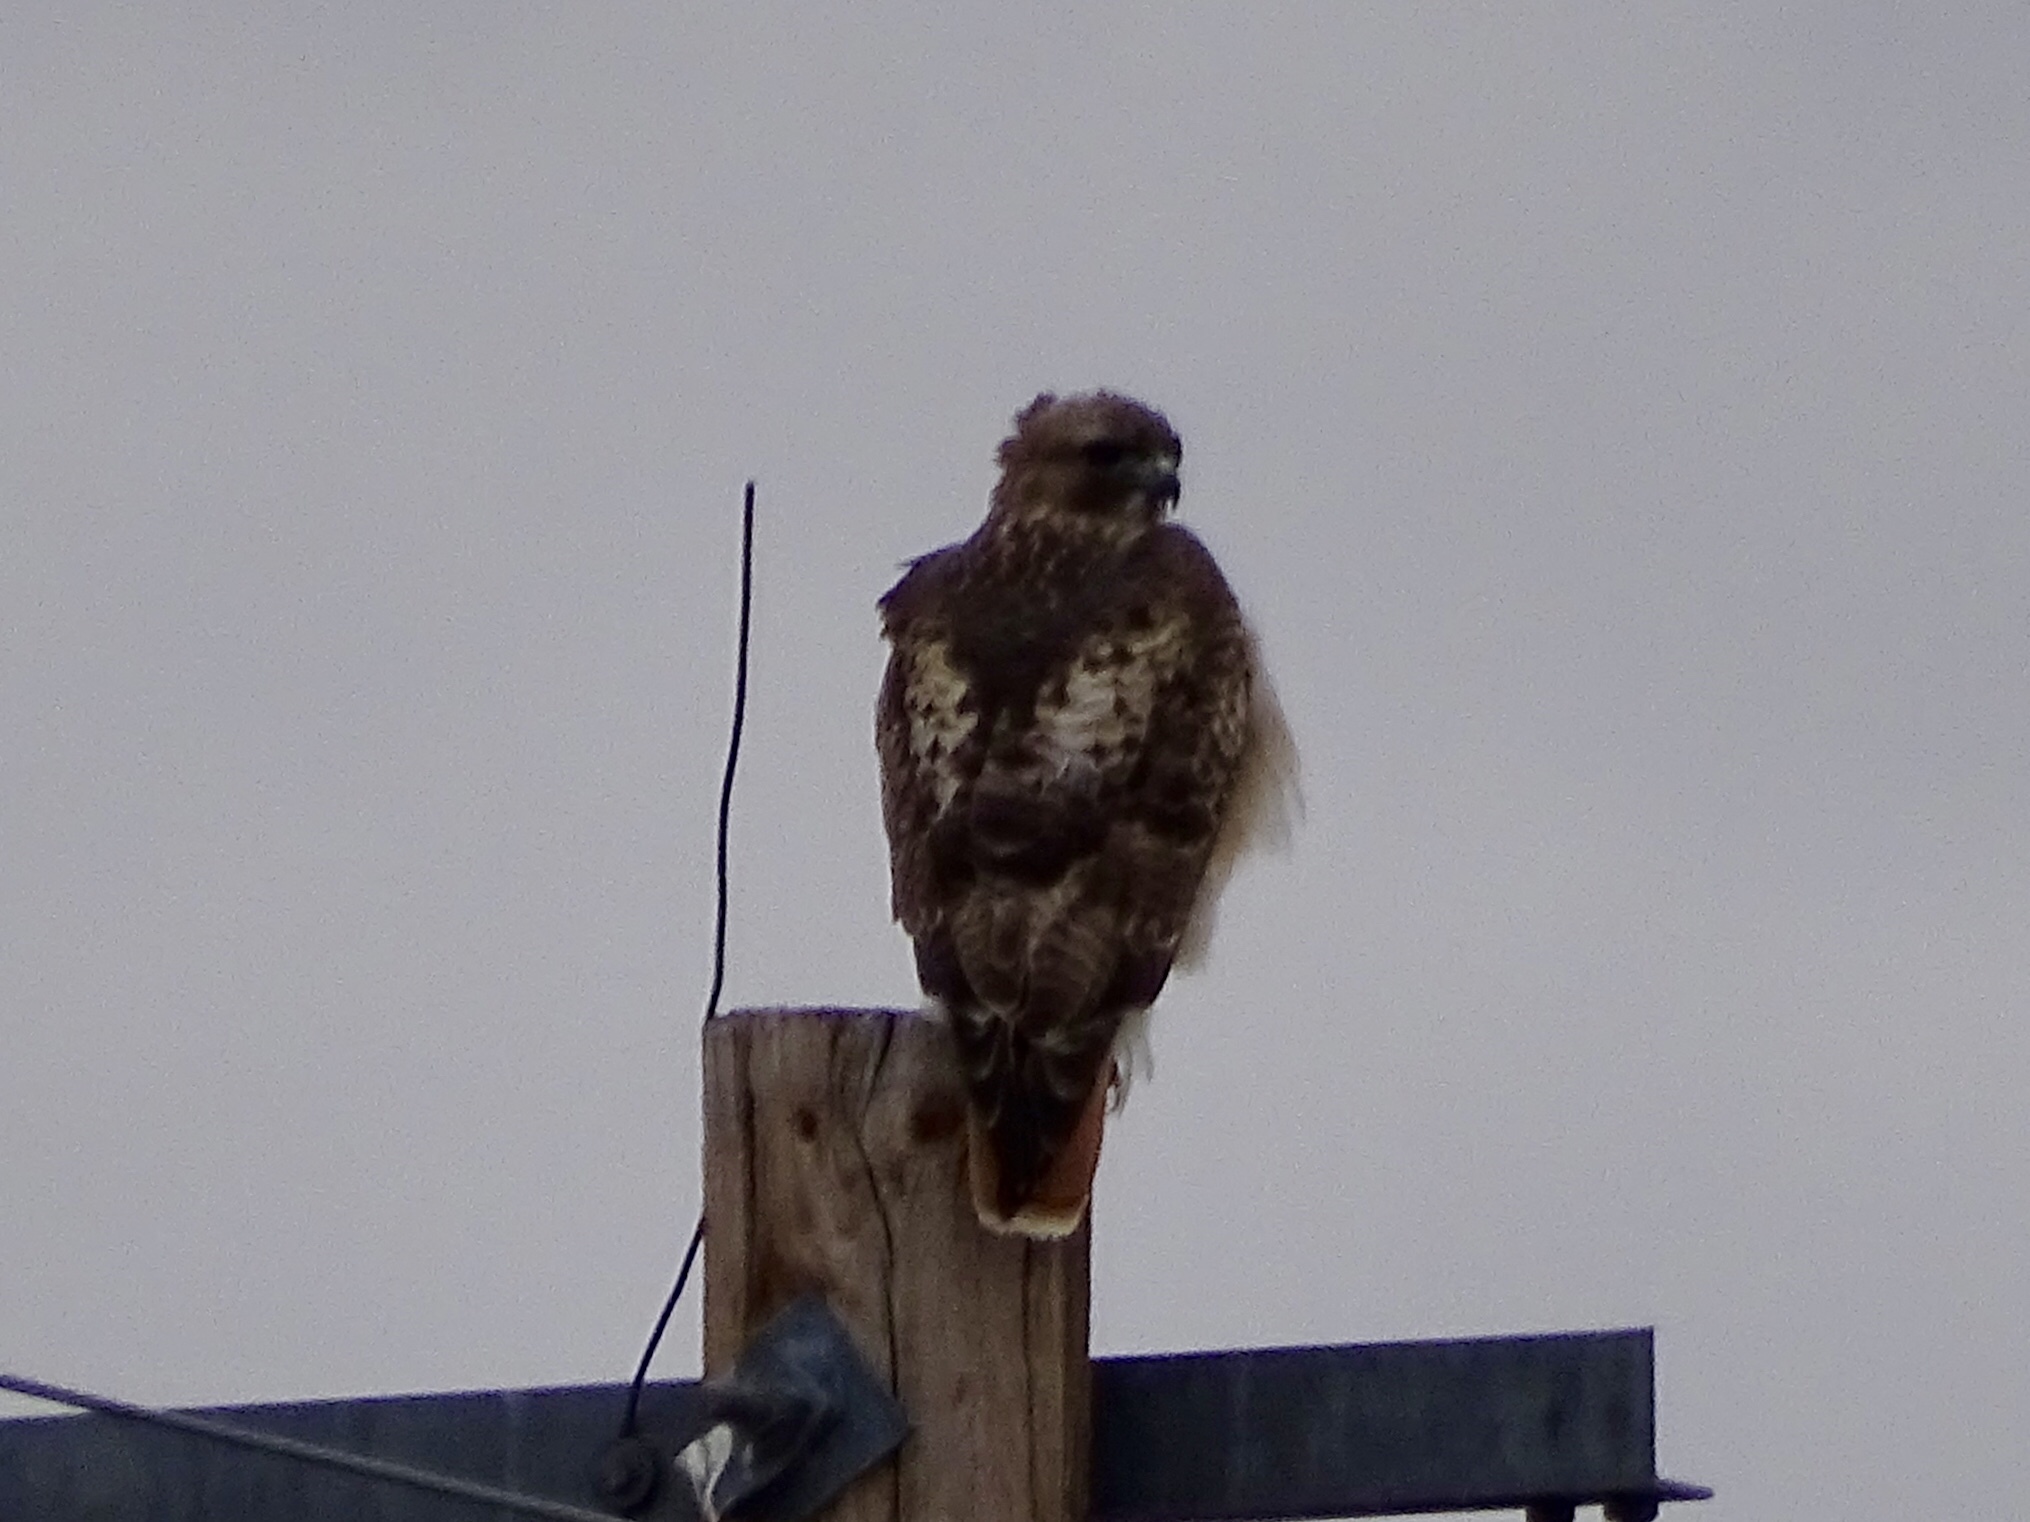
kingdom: Animalia
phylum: Chordata
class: Aves
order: Accipitriformes
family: Accipitridae
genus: Buteo
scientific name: Buteo jamaicensis
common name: Red-tailed hawk
